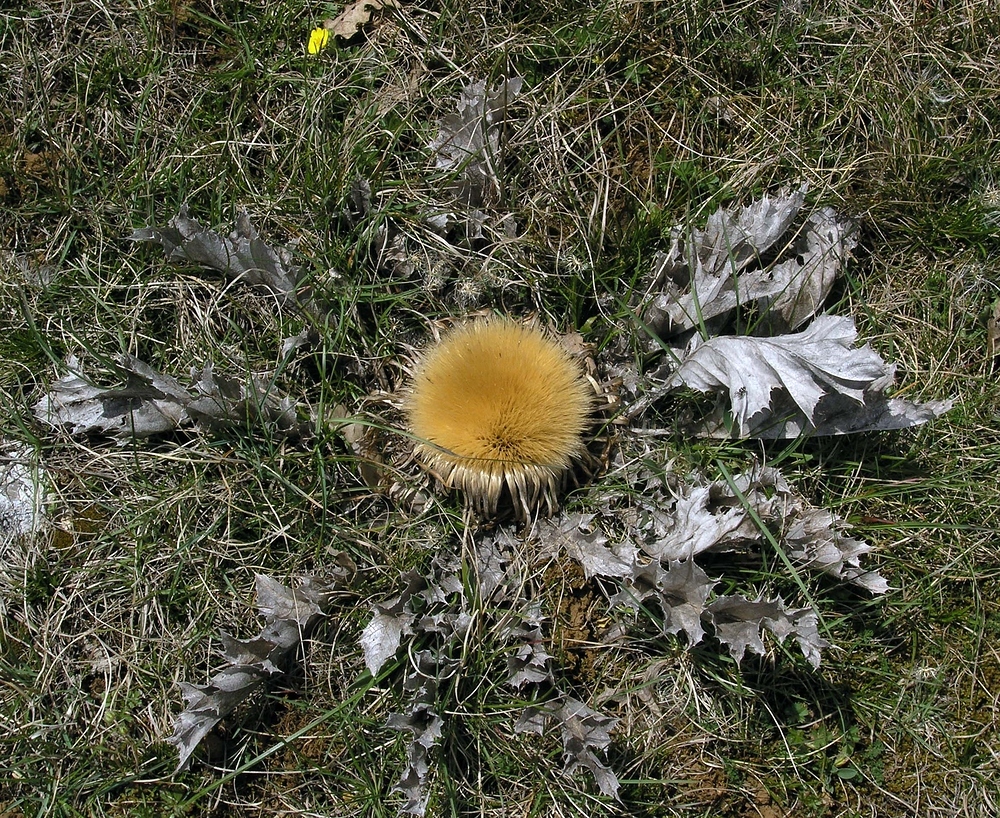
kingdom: Plantae
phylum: Tracheophyta
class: Magnoliopsida
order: Asterales
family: Asteraceae
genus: Carlina
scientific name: Carlina acanthifolia
